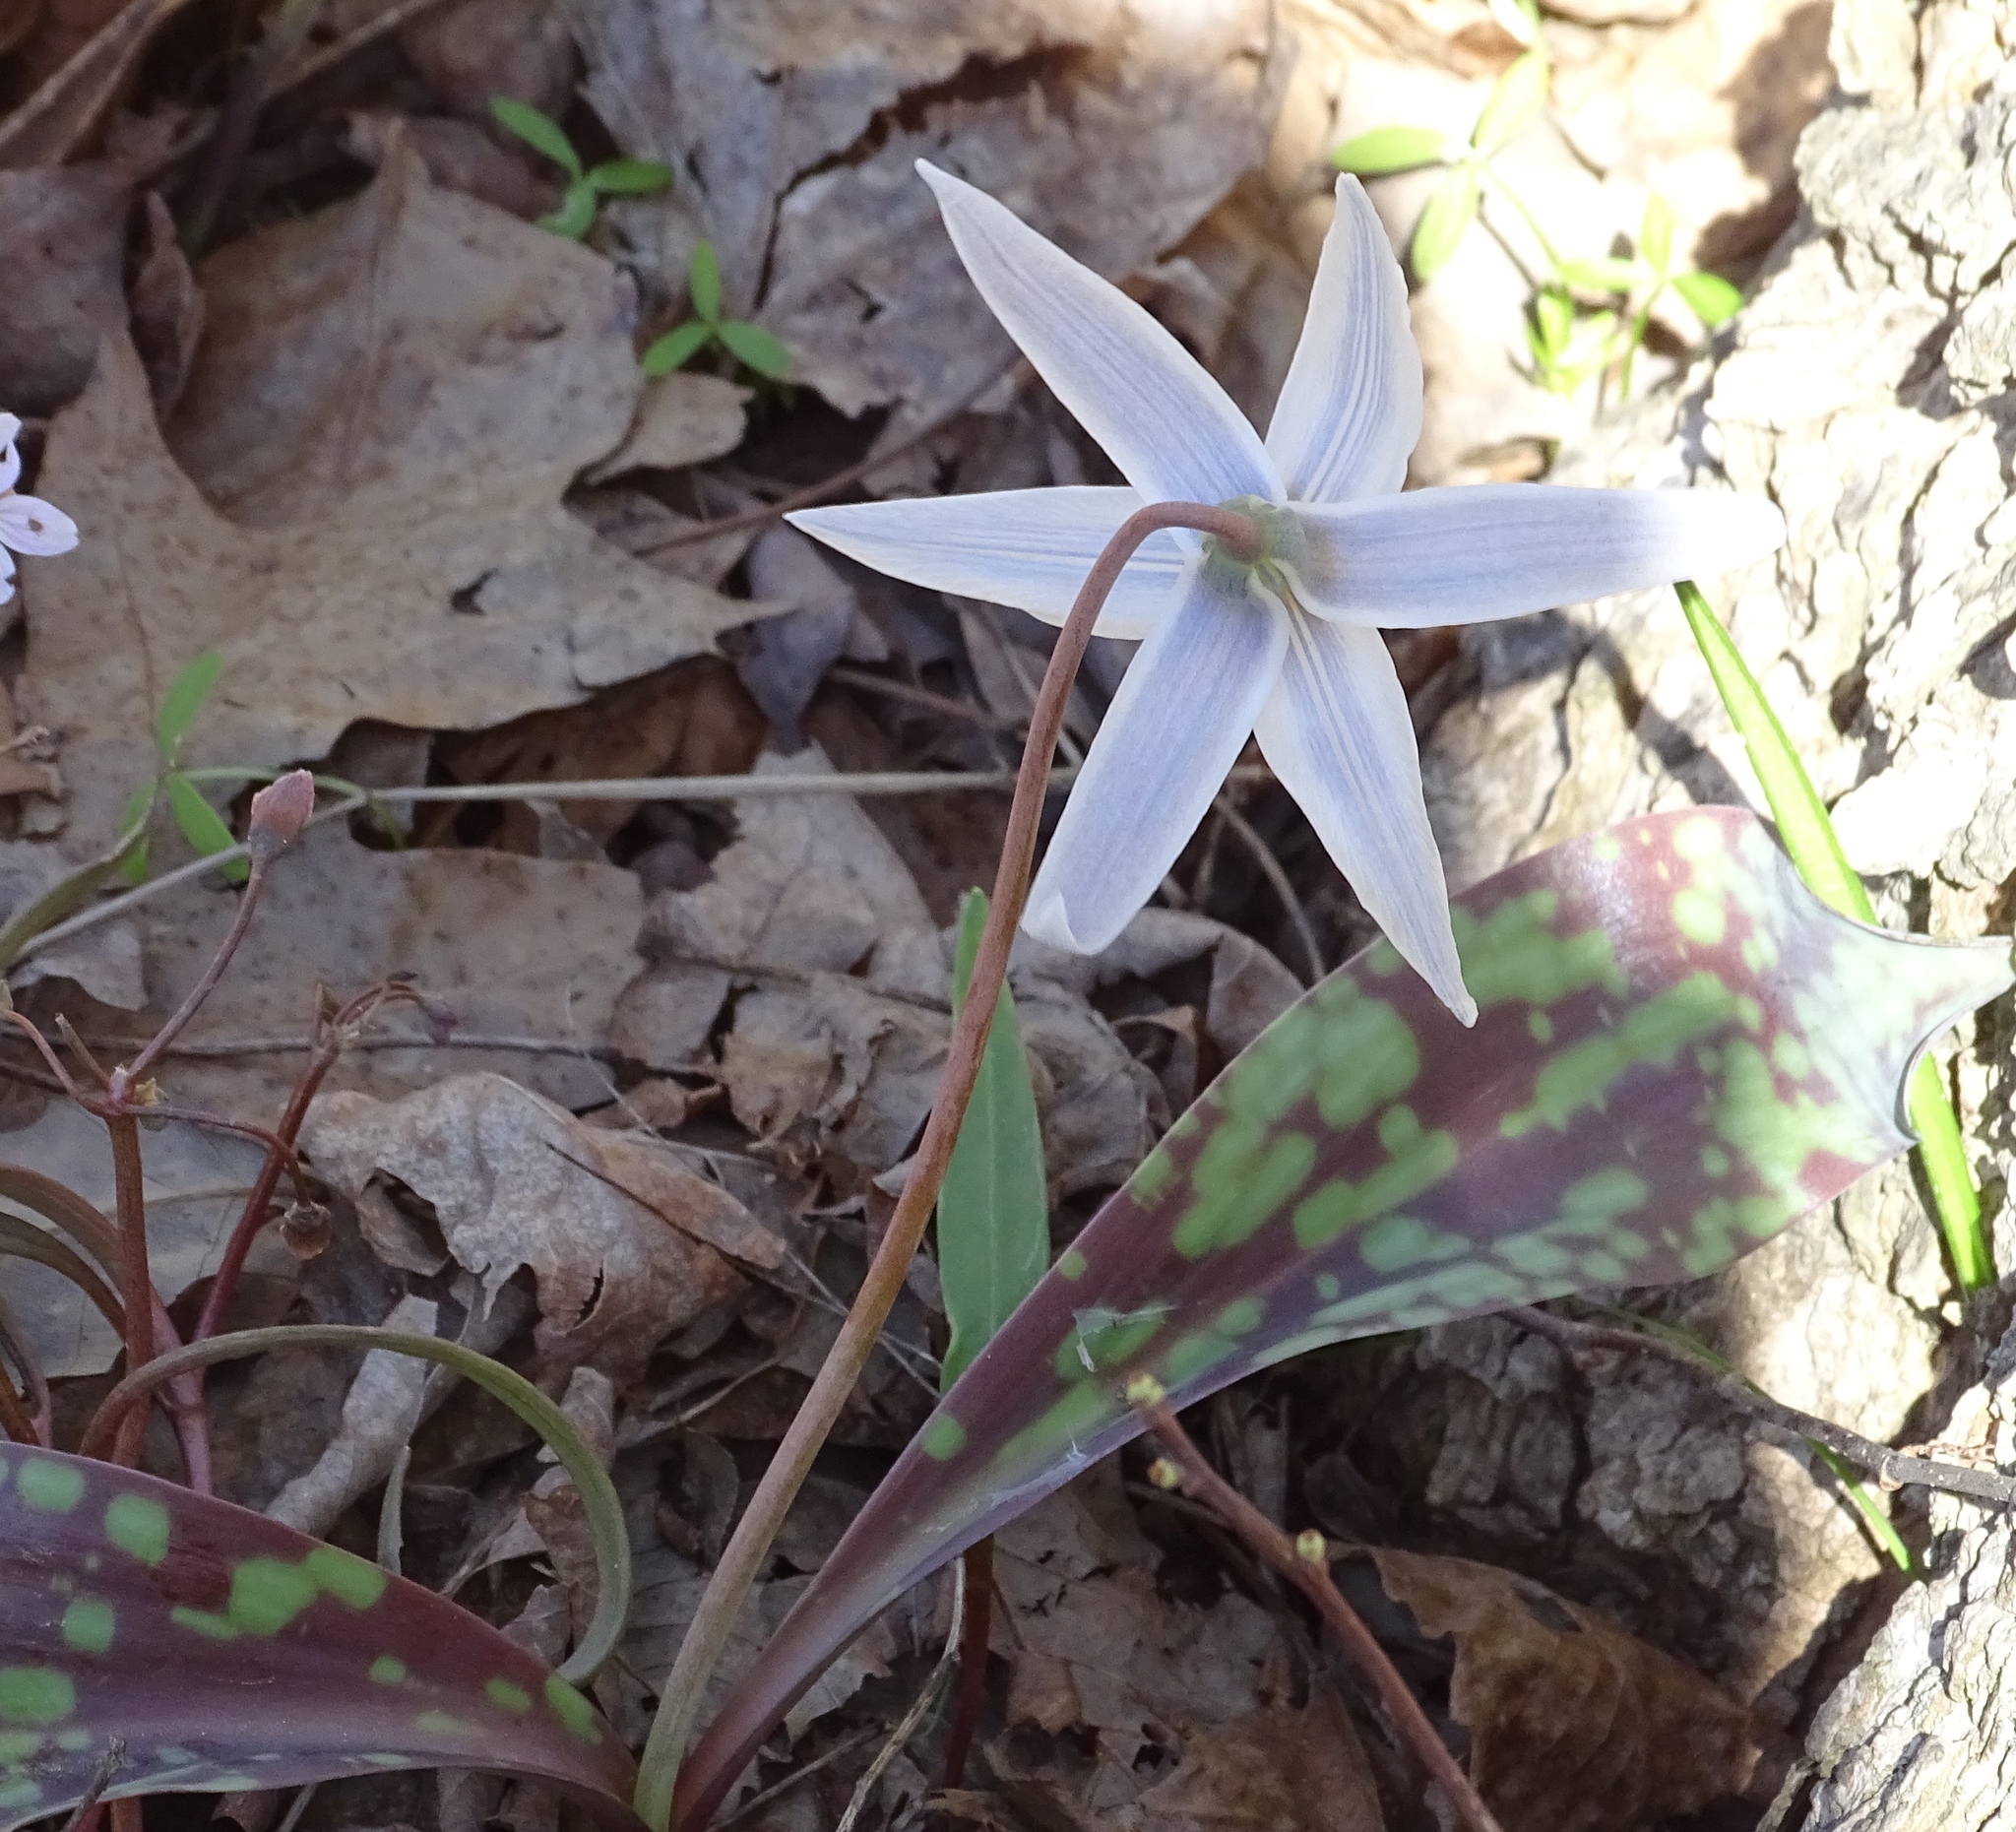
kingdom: Plantae
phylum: Tracheophyta
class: Liliopsida
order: Liliales
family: Liliaceae
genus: Erythronium
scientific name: Erythronium albidum
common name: White trout-lily
